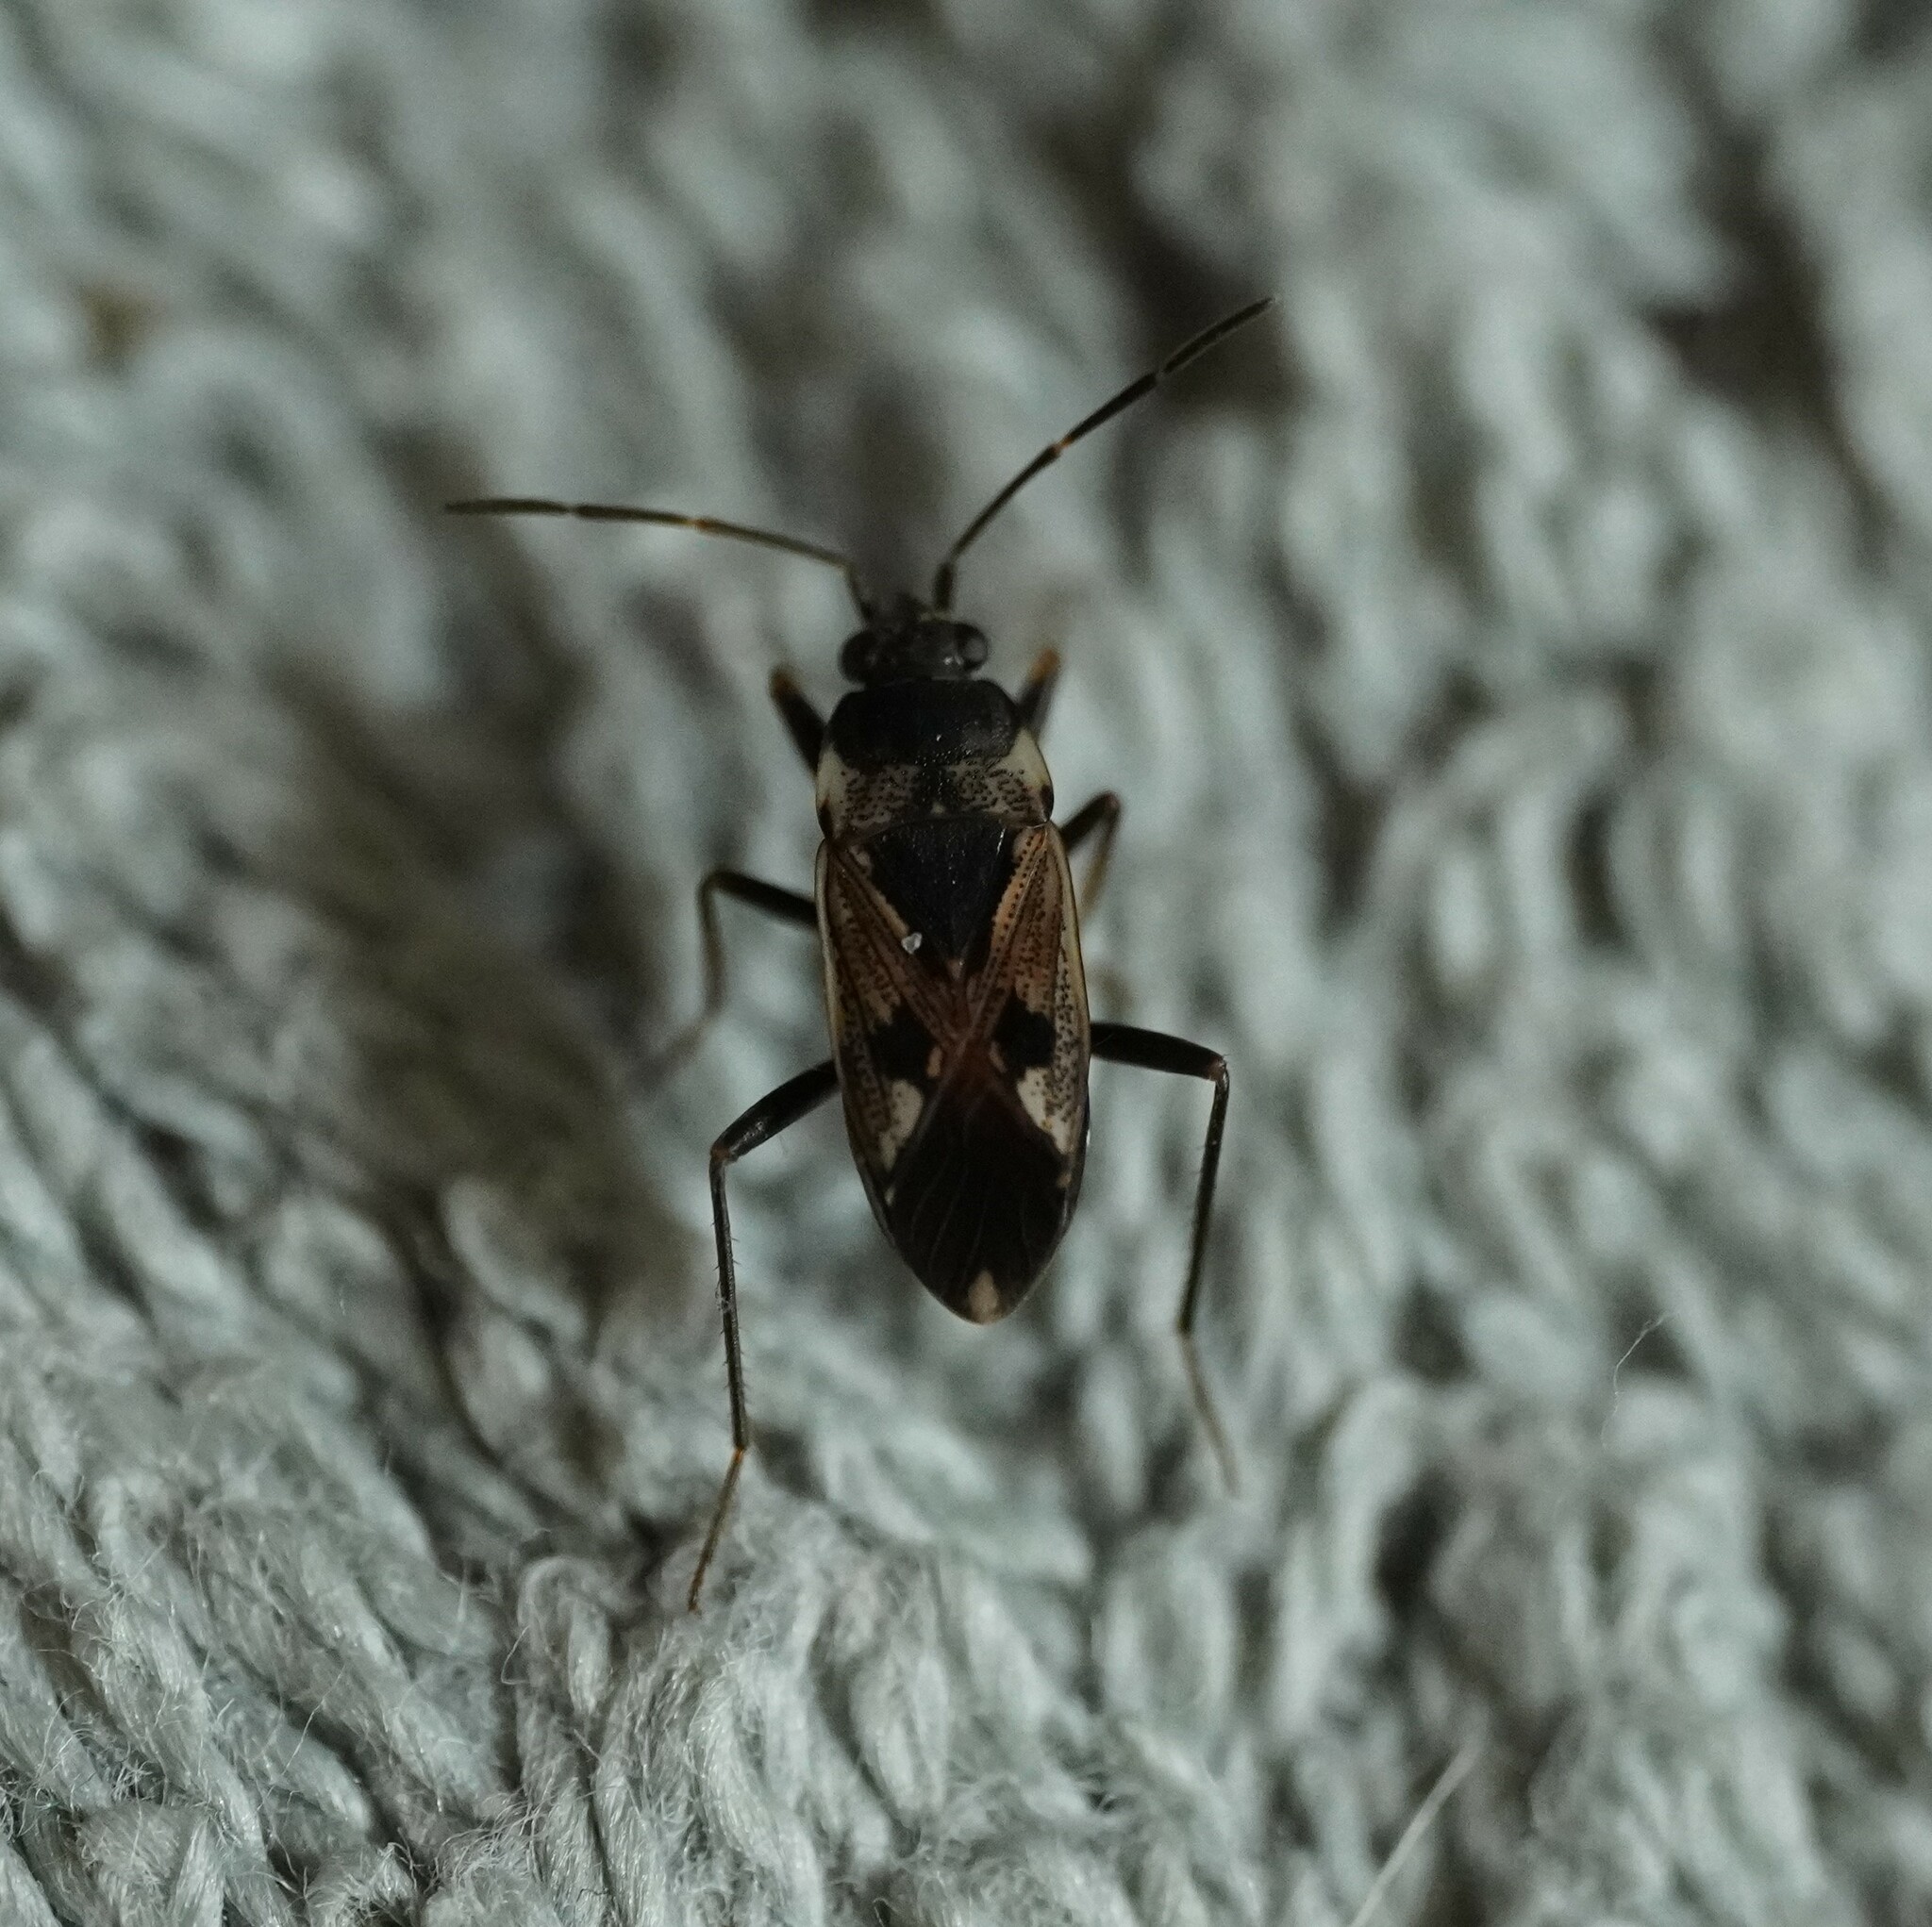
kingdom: Animalia
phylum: Arthropoda
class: Insecta
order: Hemiptera
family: Rhyparochromidae
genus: Rhyparochromus
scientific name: Rhyparochromus vulgaris
